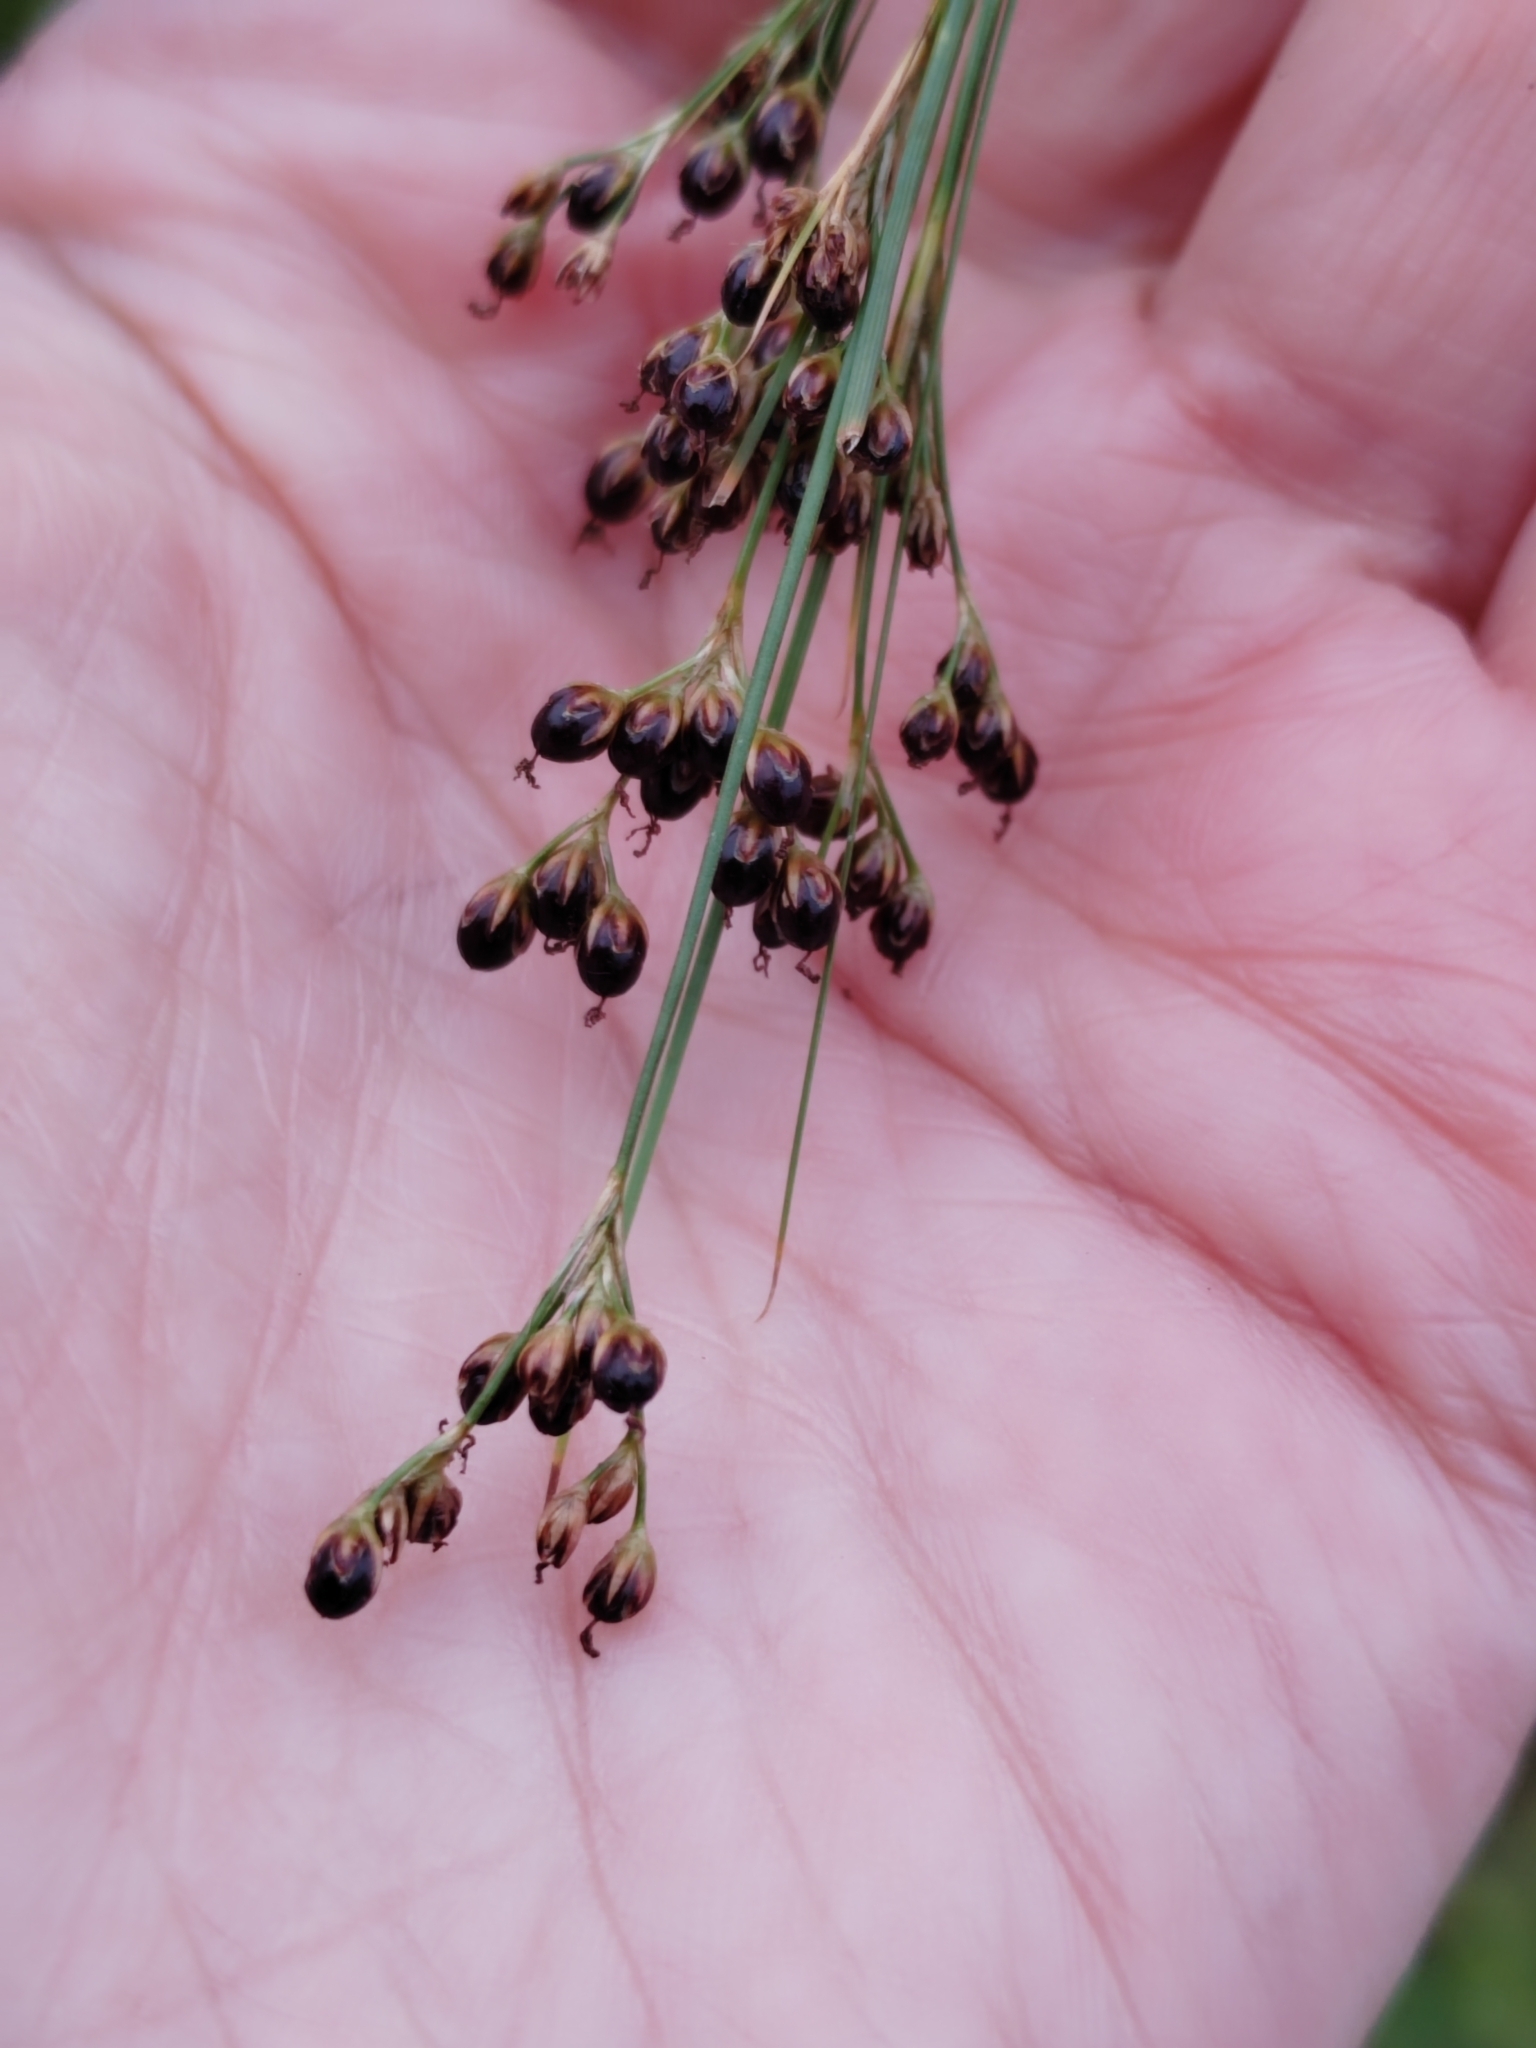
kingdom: Plantae
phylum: Tracheophyta
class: Liliopsida
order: Poales
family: Juncaceae
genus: Juncus
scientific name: Juncus compressus
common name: Round-fruited rush
